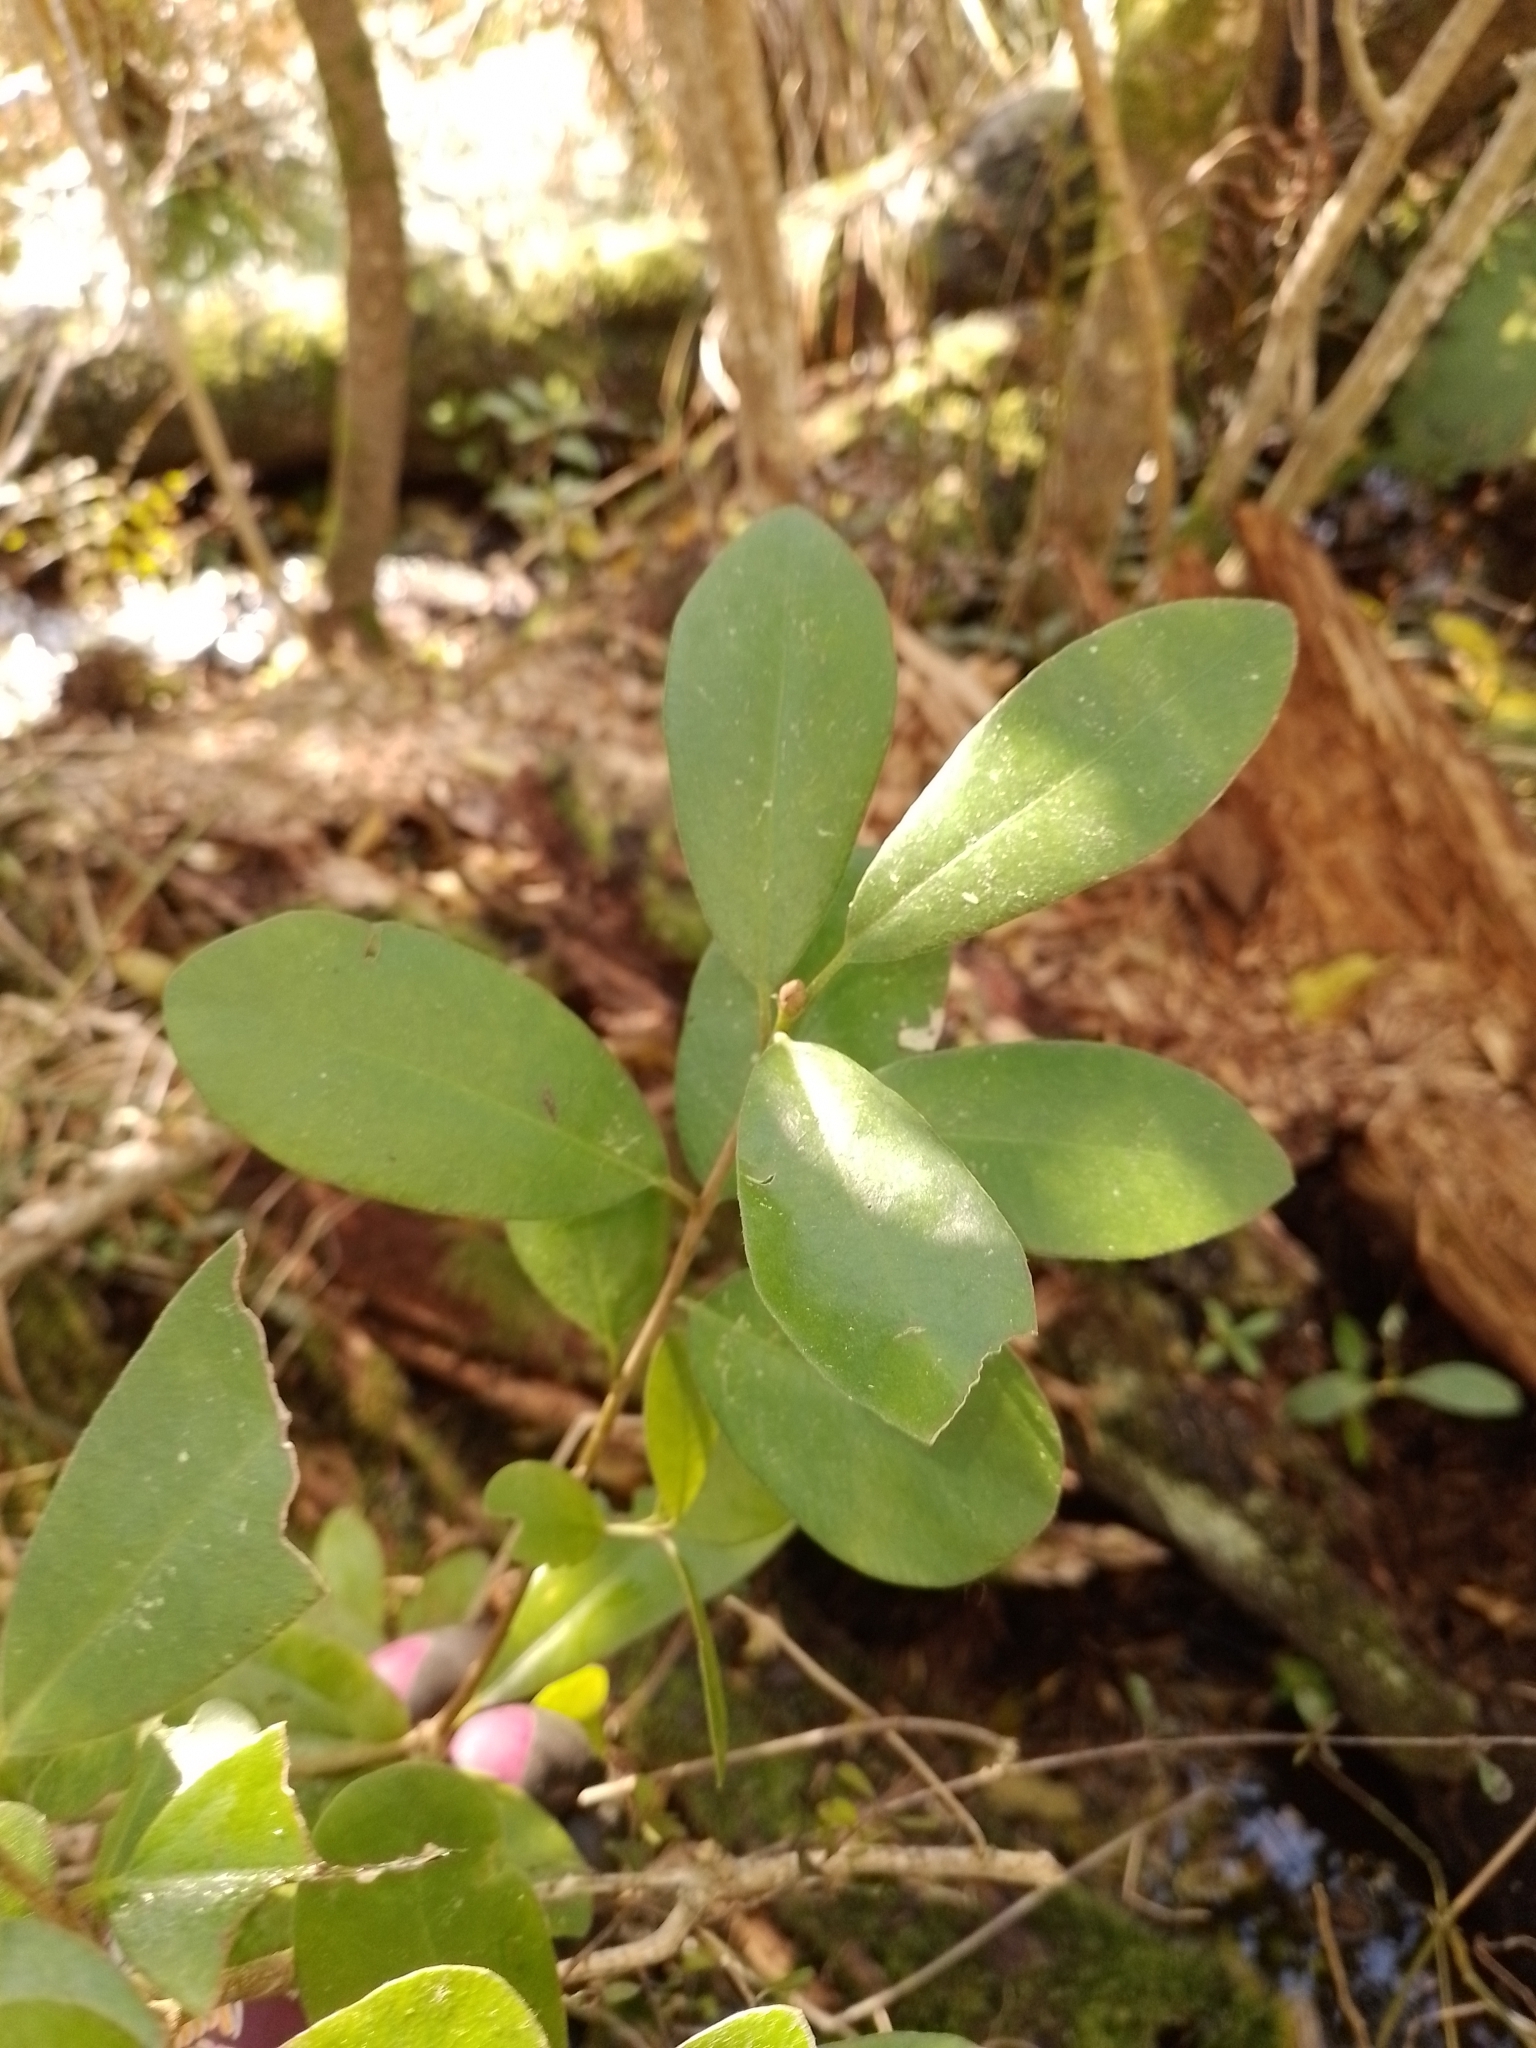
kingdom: Plantae
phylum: Tracheophyta
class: Magnoliopsida
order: Apiales
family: Pittosporaceae
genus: Pittosporum
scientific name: Pittosporum ralphii
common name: Ralph's desertwillow
